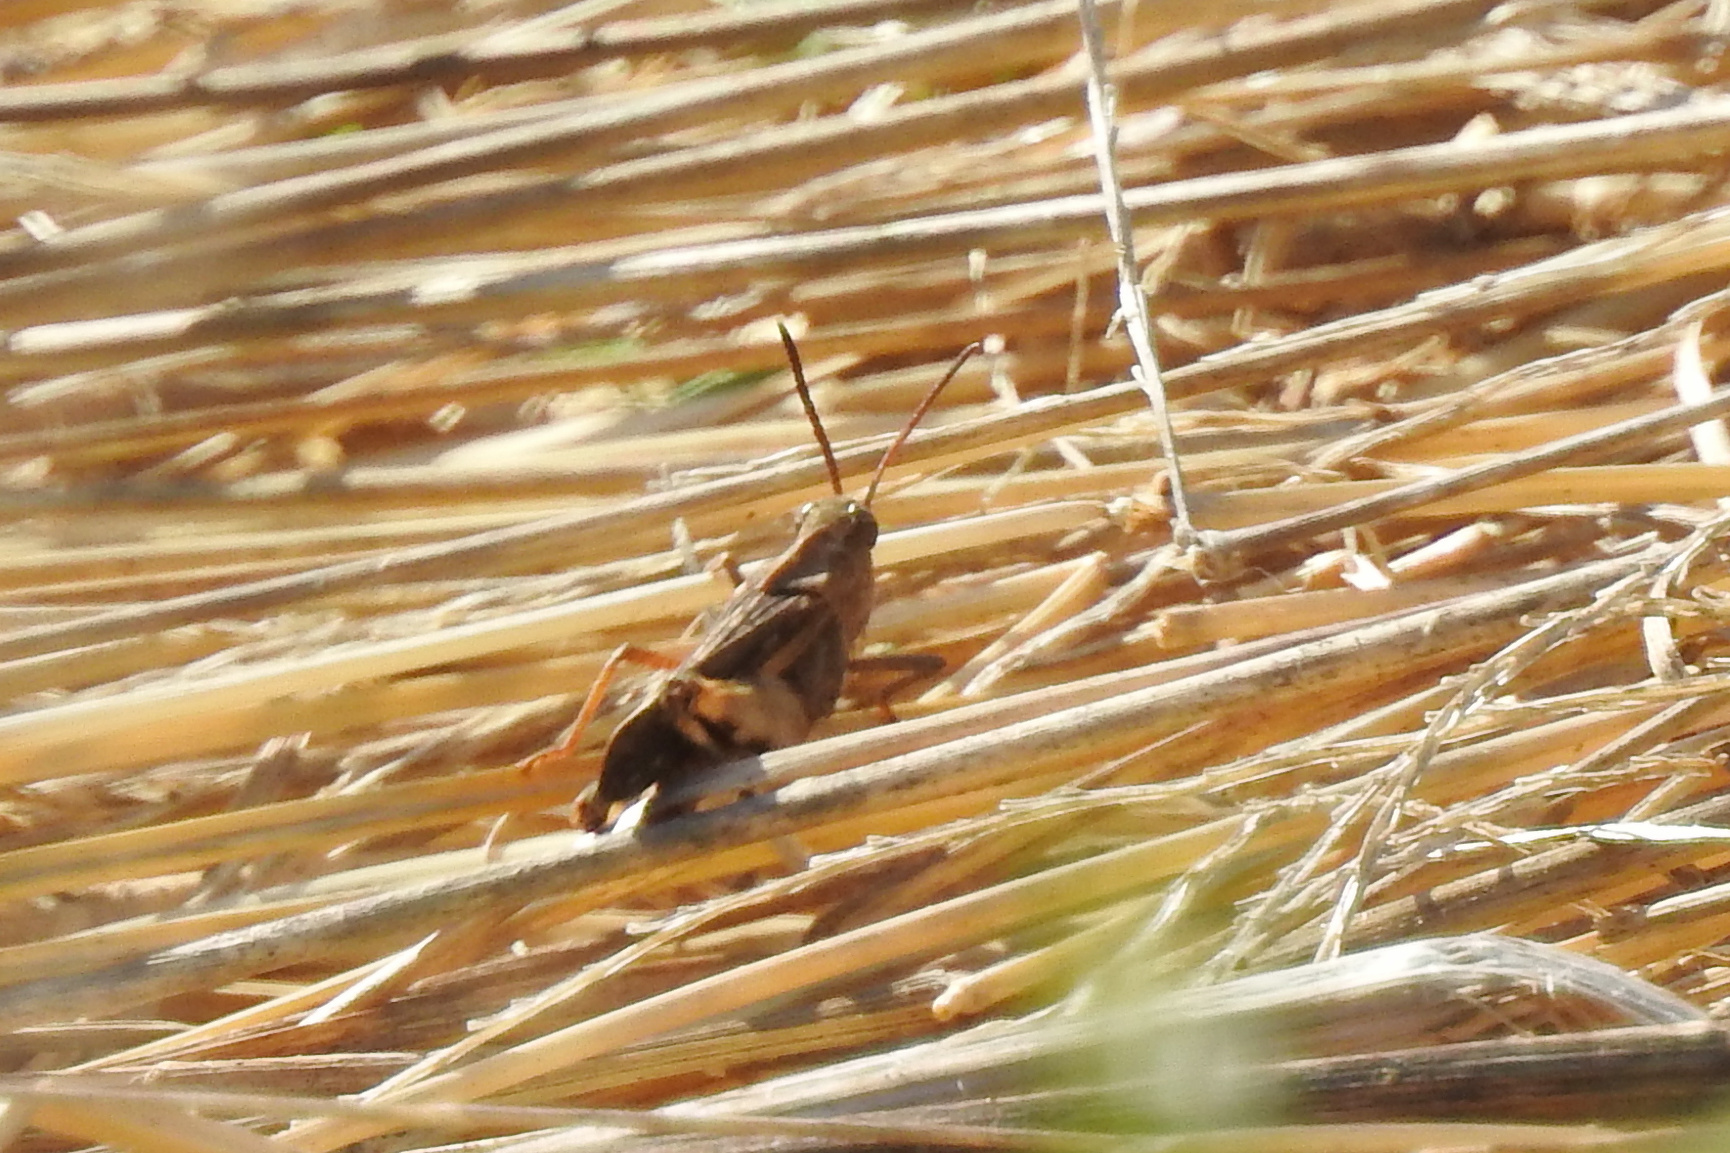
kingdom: Animalia
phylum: Arthropoda
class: Insecta
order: Orthoptera
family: Acrididae
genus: Chortophaga
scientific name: Chortophaga viridifasciata
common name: Green-striped grasshopper
